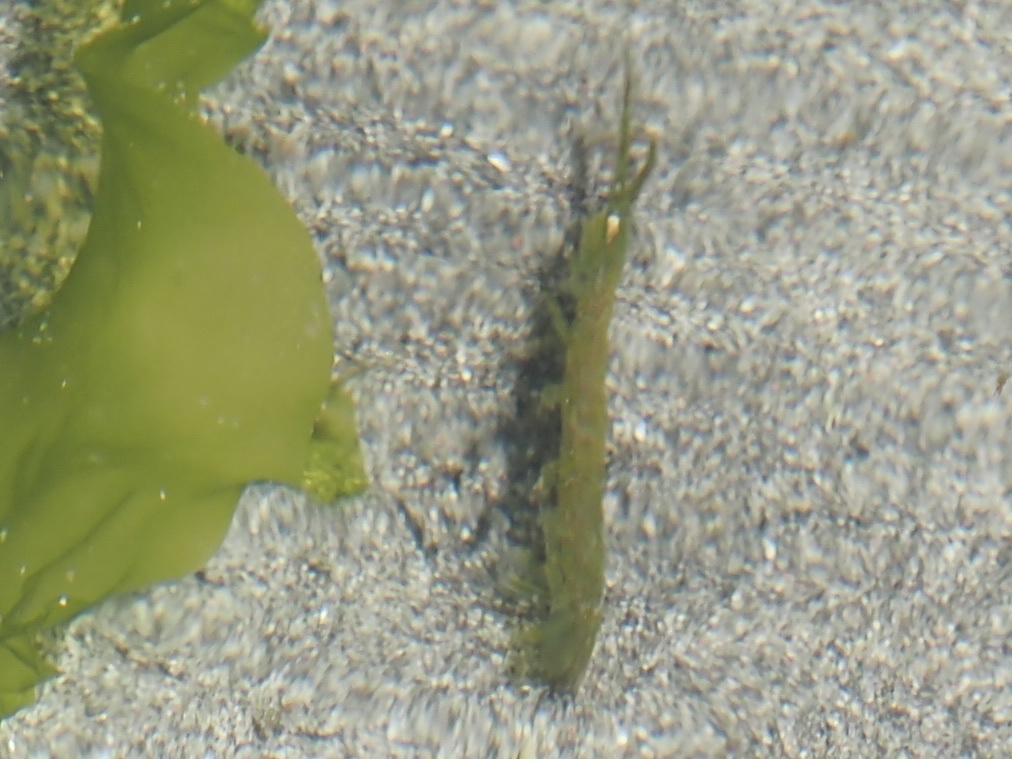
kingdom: Animalia
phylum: Arthropoda
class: Malacostraca
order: Isopoda
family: Idoteidae
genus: Pentidotea
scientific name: Pentidotea resecata
